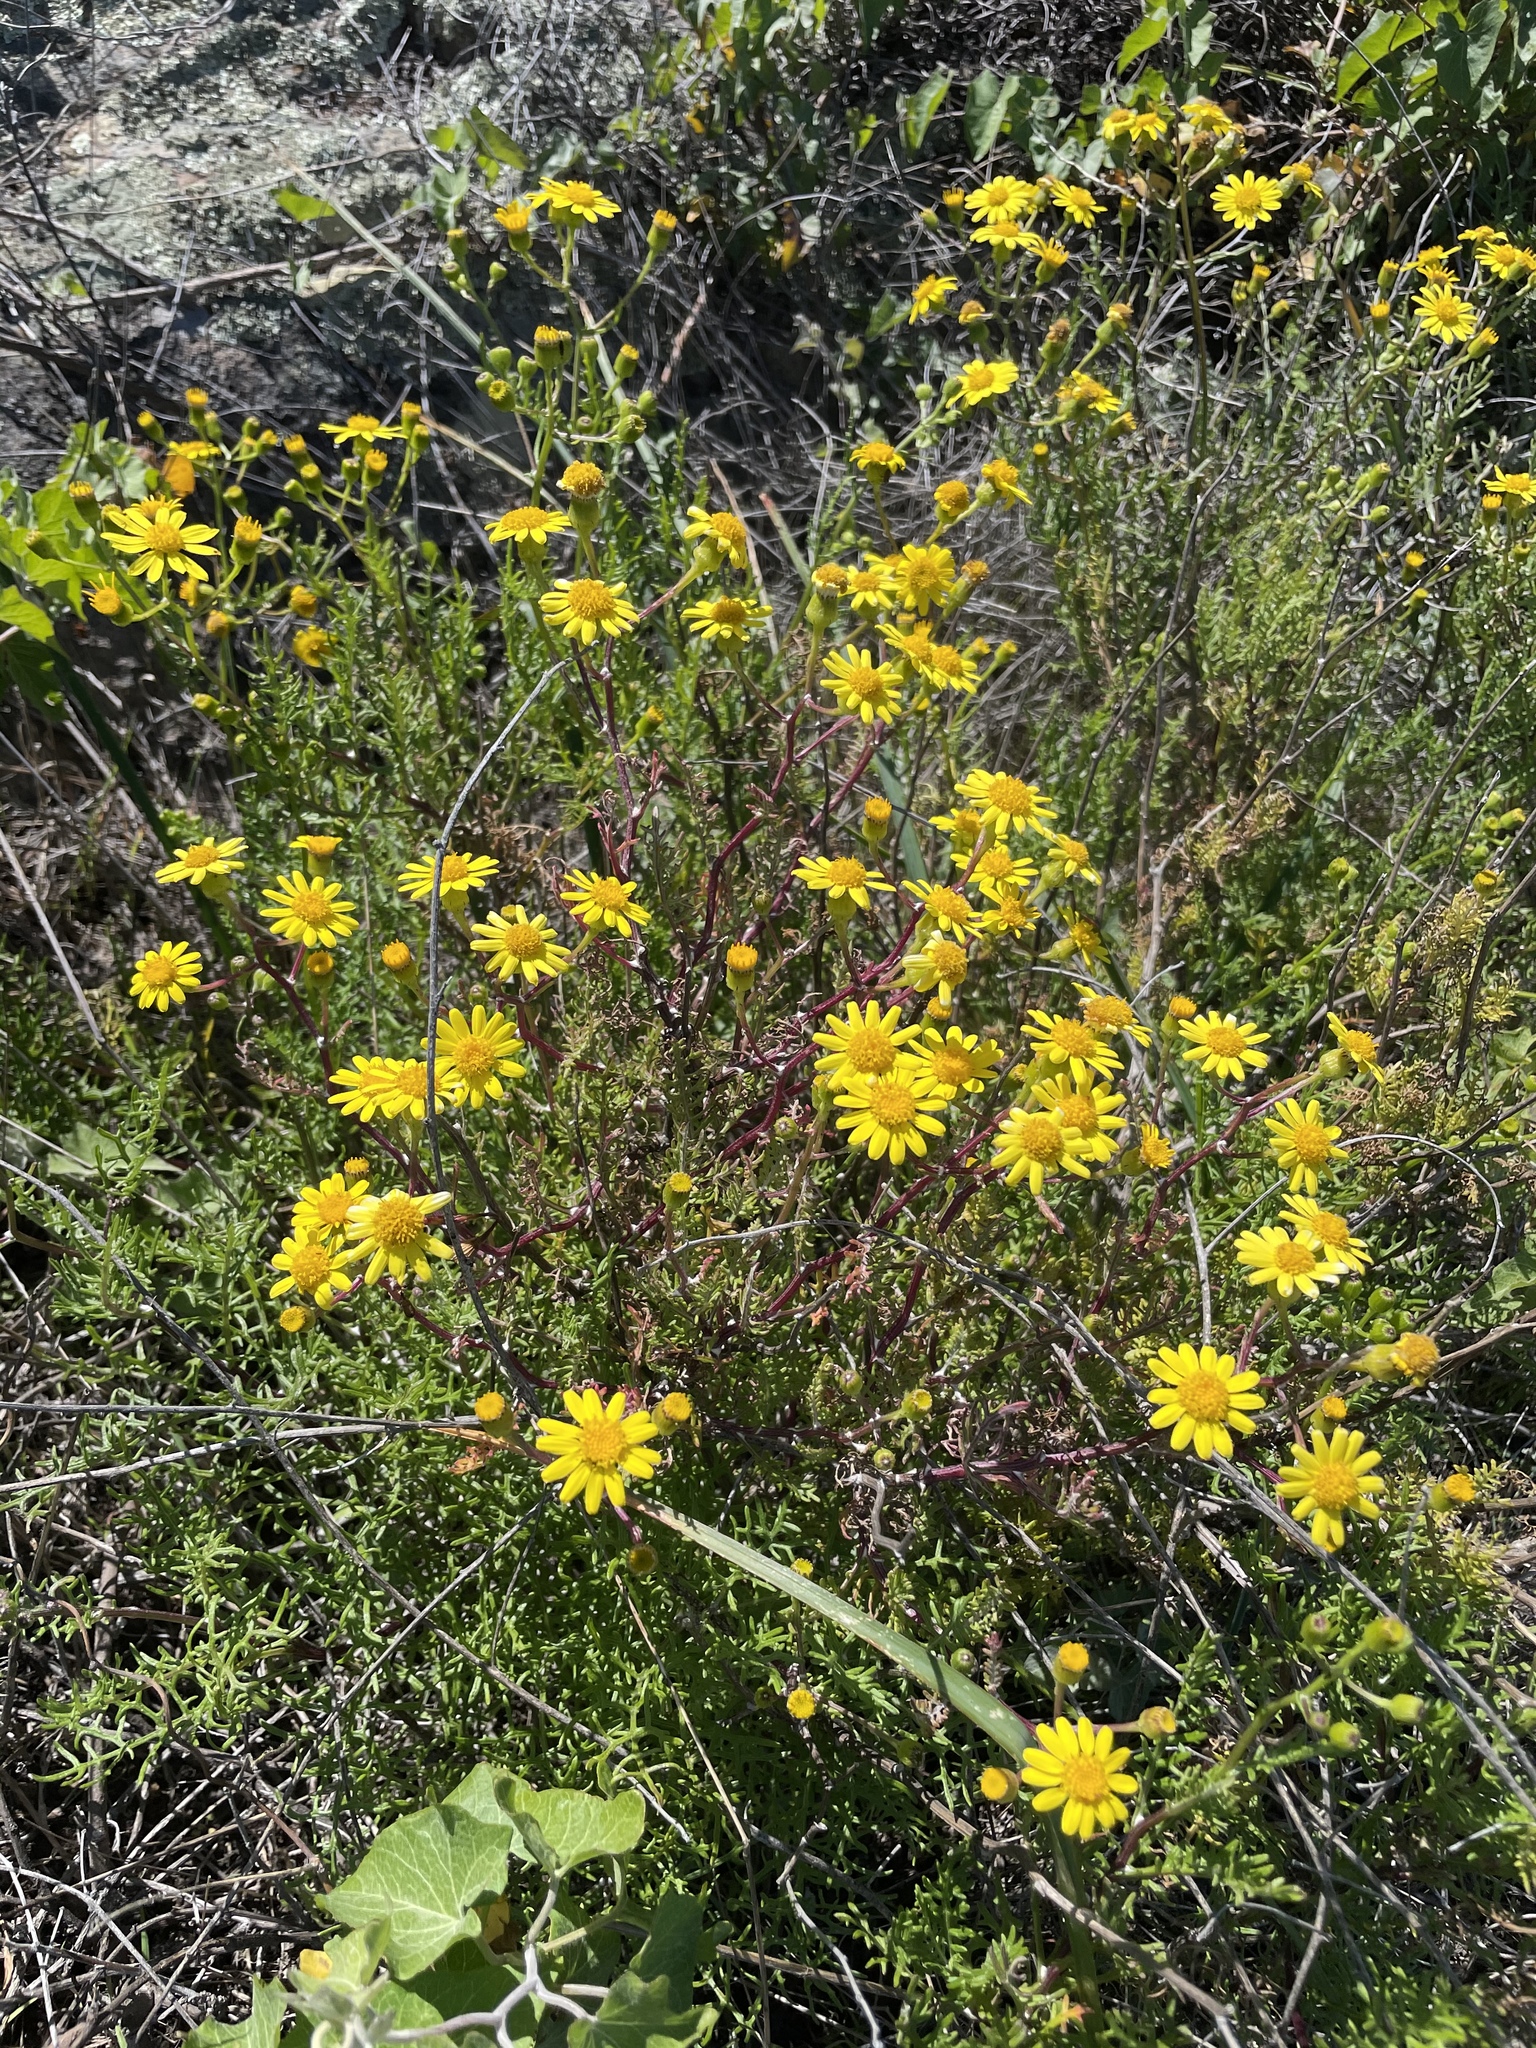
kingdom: Plantae
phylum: Tracheophyta
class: Magnoliopsida
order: Asterales
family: Asteraceae
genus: Senecio
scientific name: Senecio lyonii
